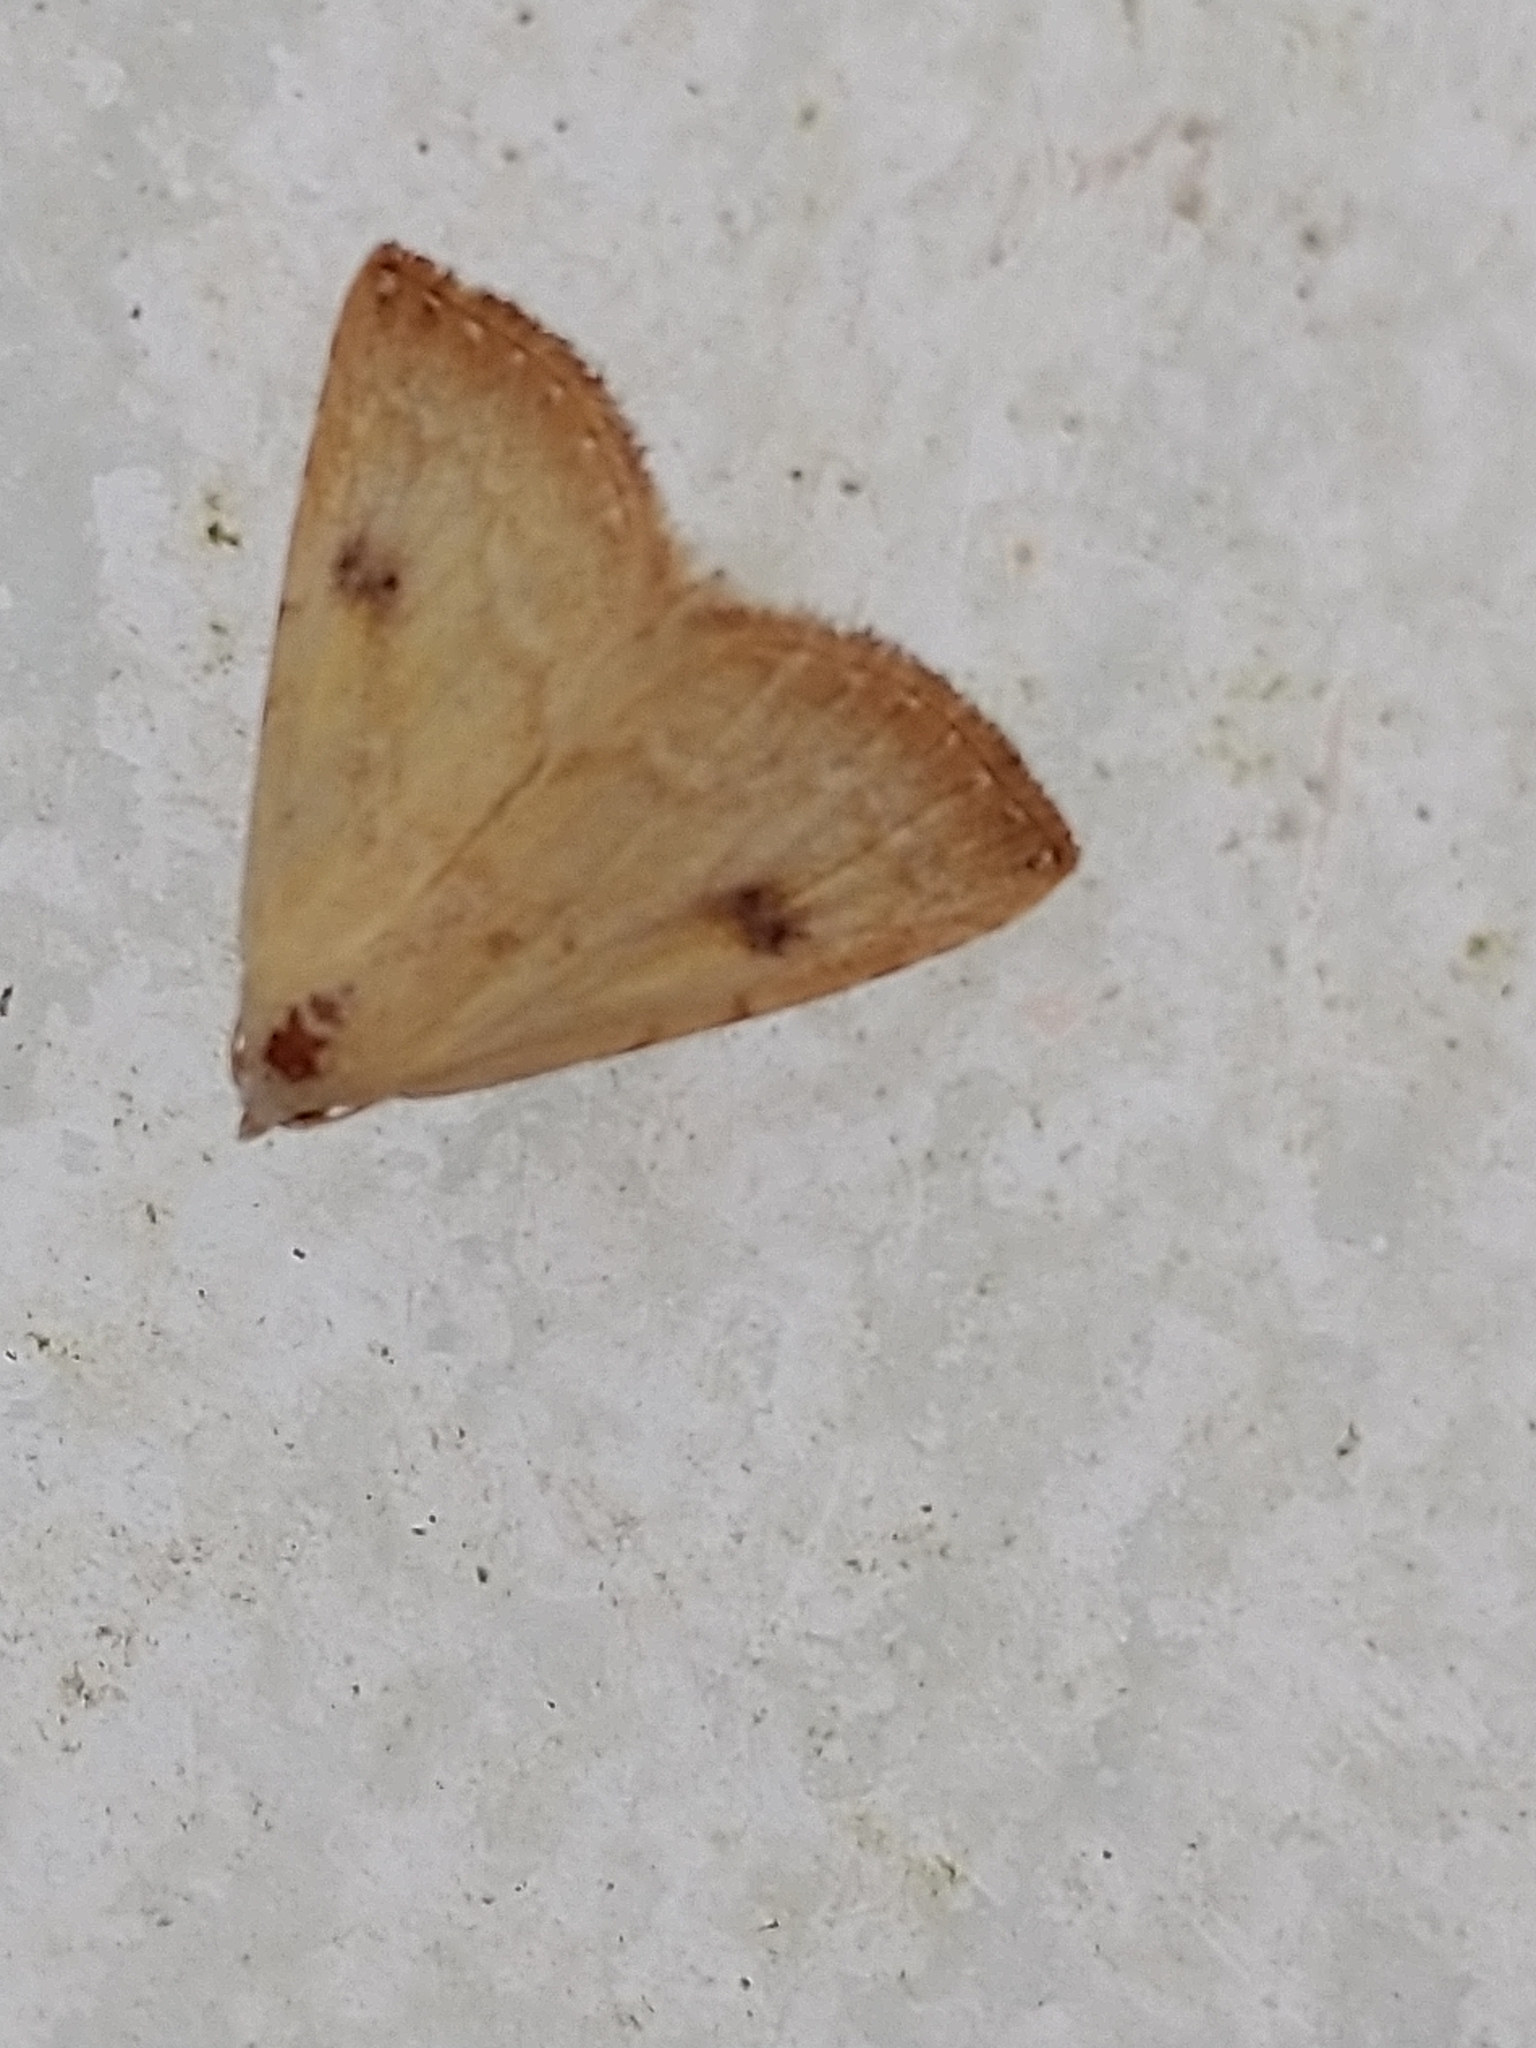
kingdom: Animalia
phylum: Arthropoda
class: Insecta
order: Lepidoptera
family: Erebidae
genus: Rivula
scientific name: Rivula sericealis
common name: Straw dot
